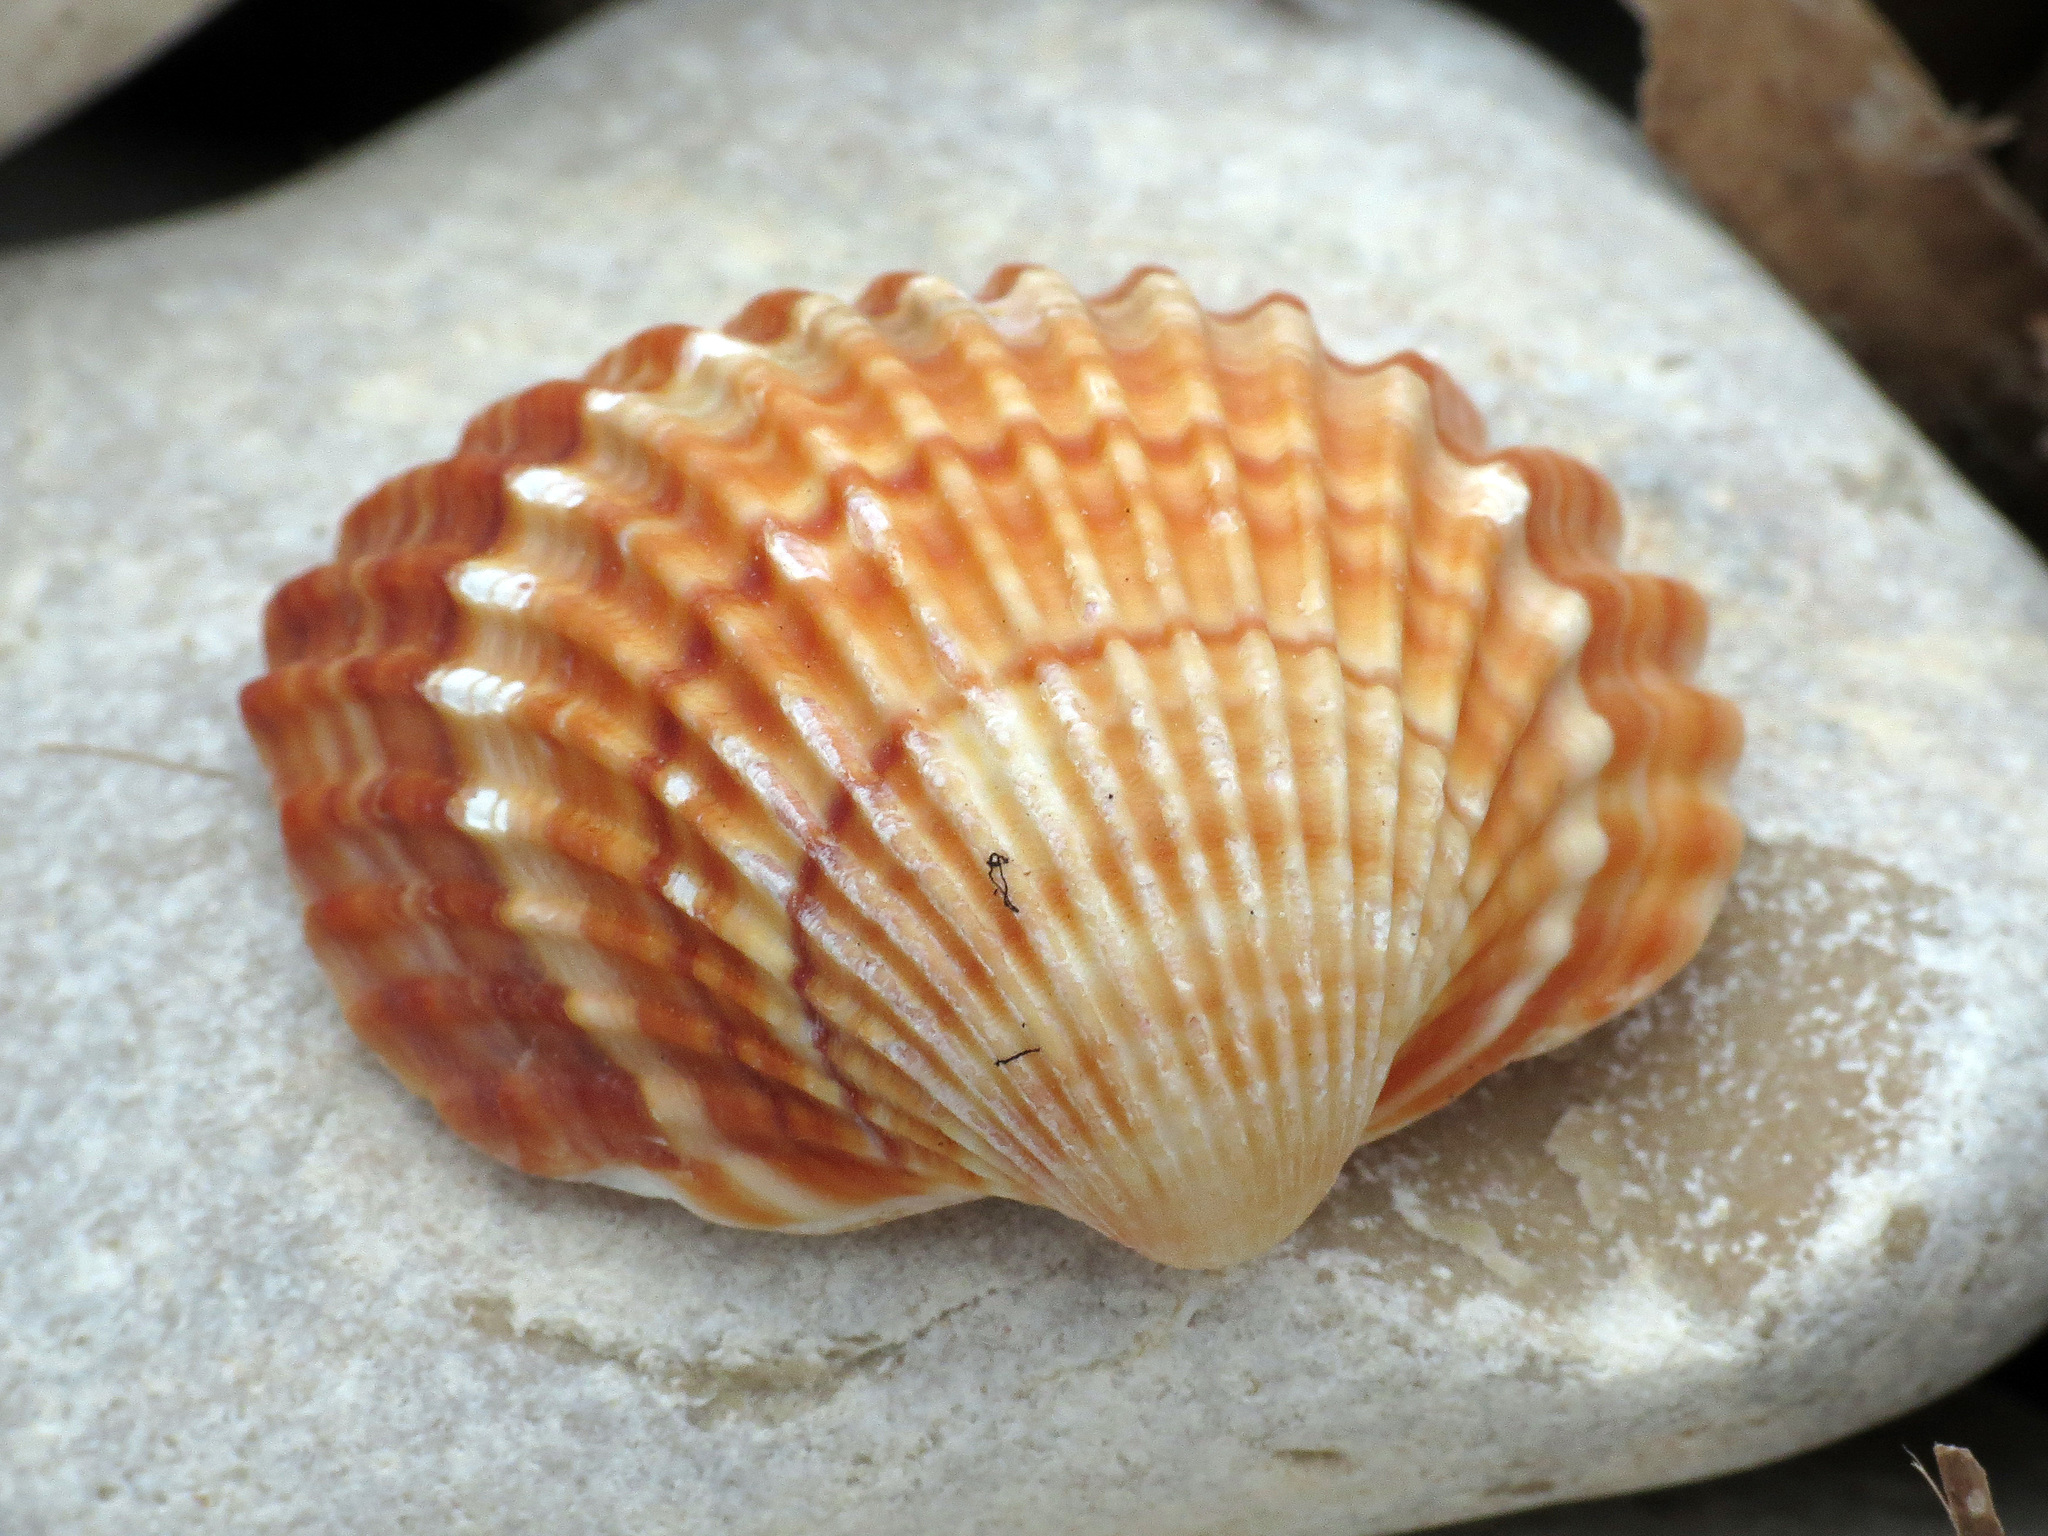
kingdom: Animalia
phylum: Mollusca
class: Bivalvia
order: Cardiida
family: Cardiidae
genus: Acanthocardia
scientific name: Acanthocardia tuberculata
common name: Rough cockle
